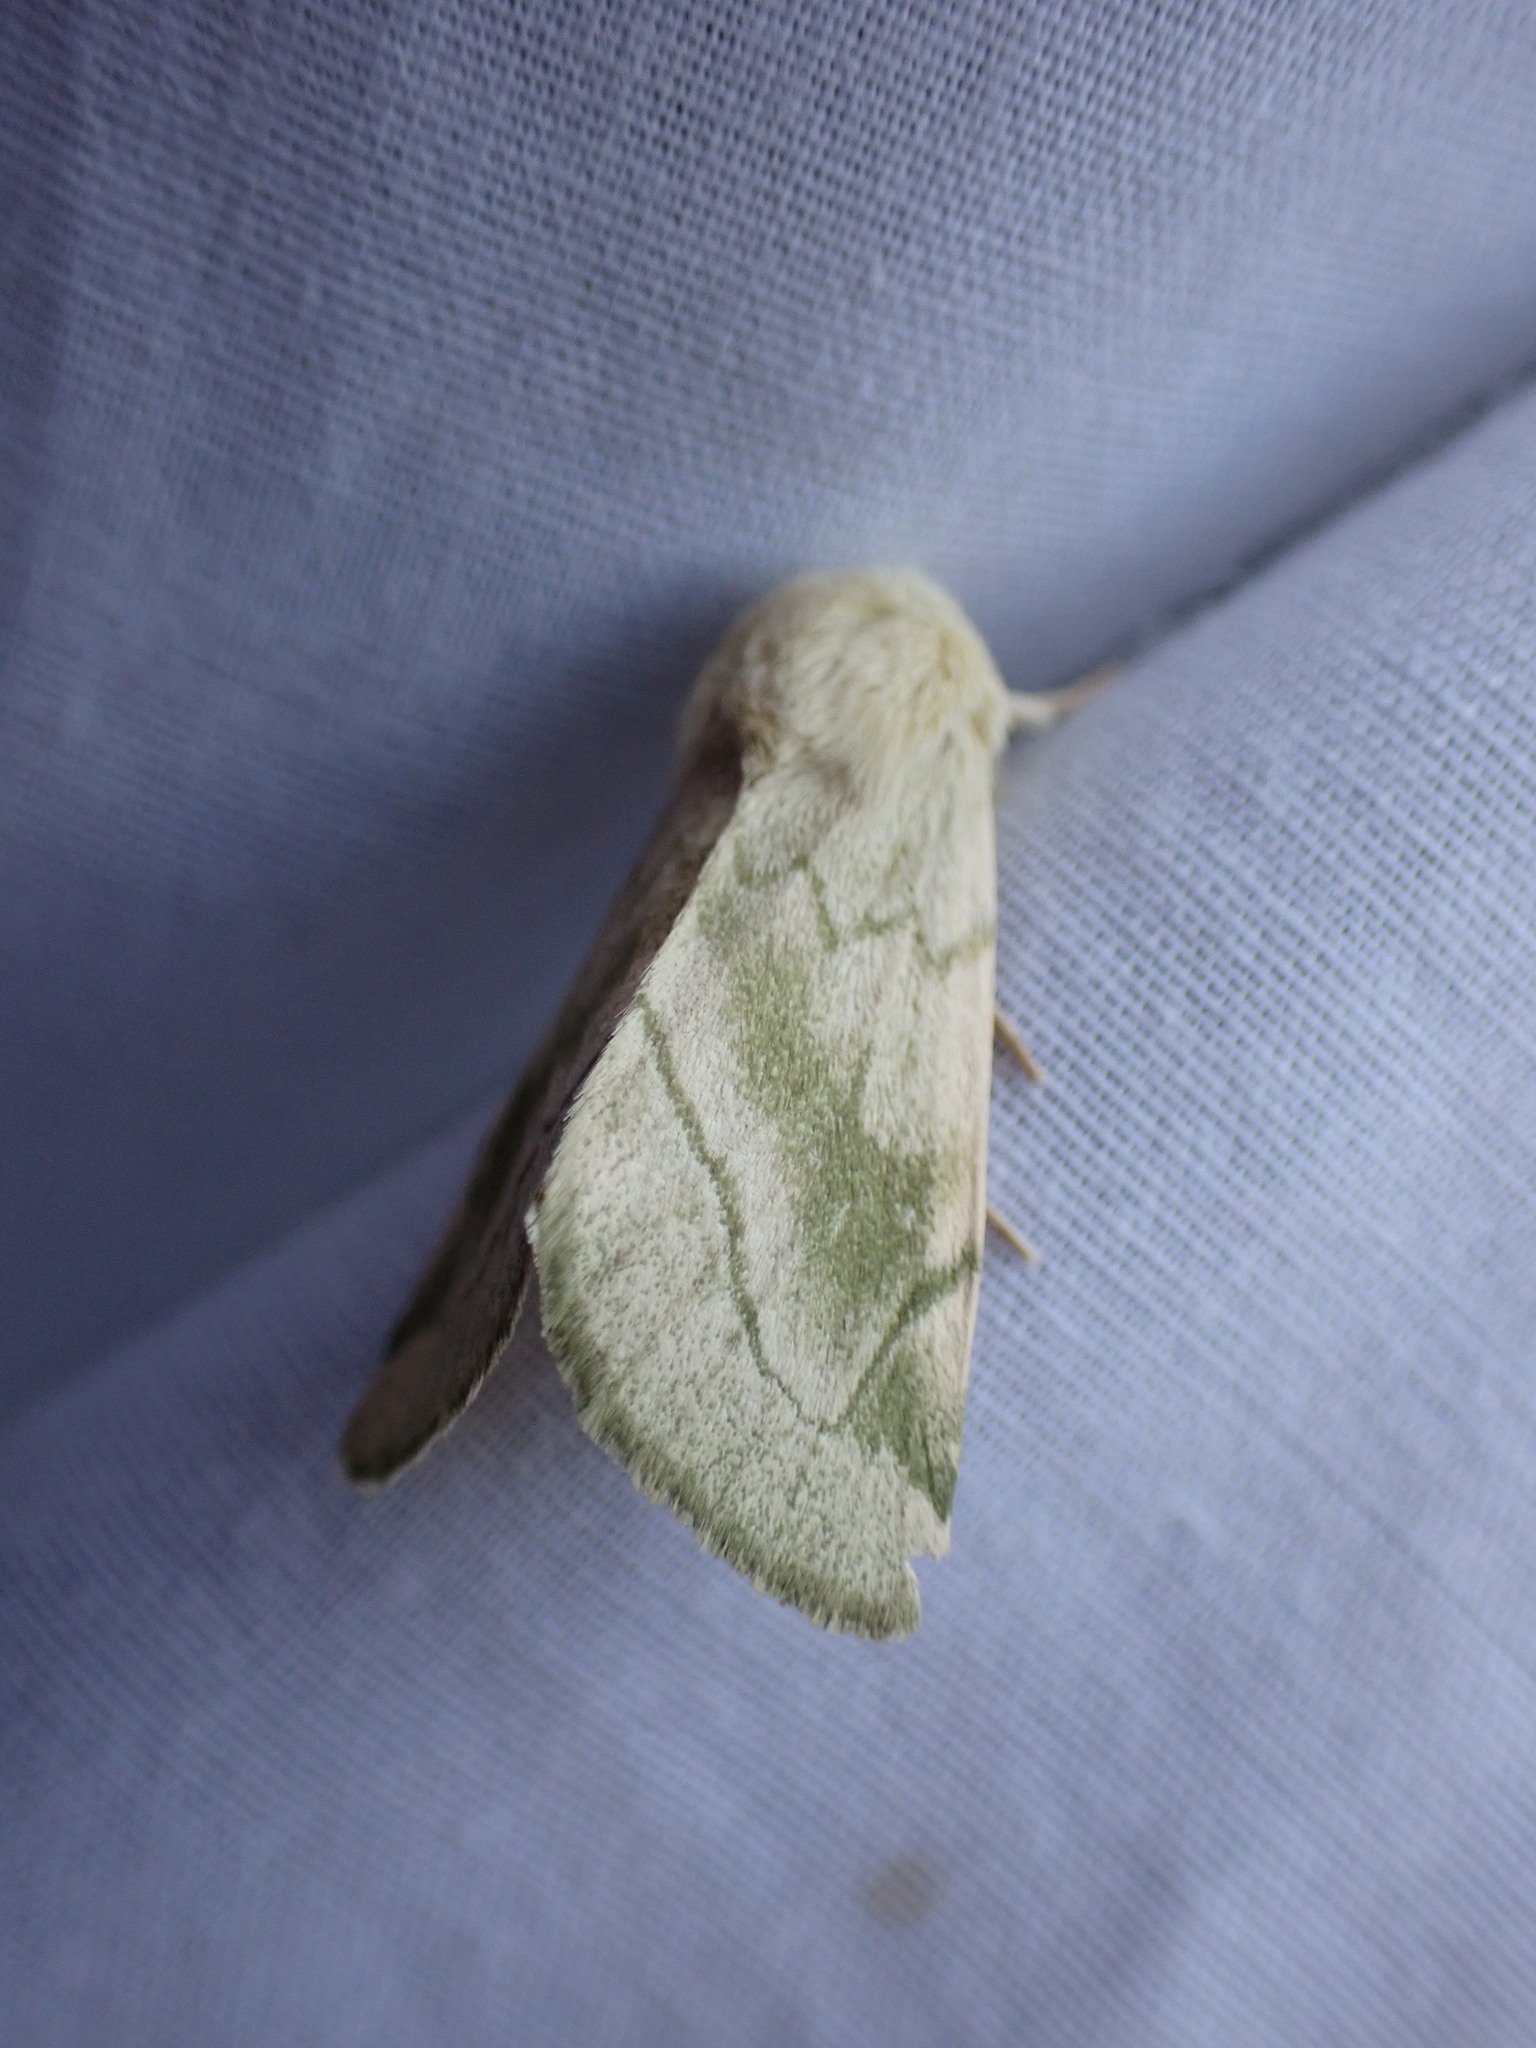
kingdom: Animalia
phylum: Arthropoda
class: Insecta
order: Lepidoptera
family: Noctuidae
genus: Zotheca
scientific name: Zotheca tranquilla
